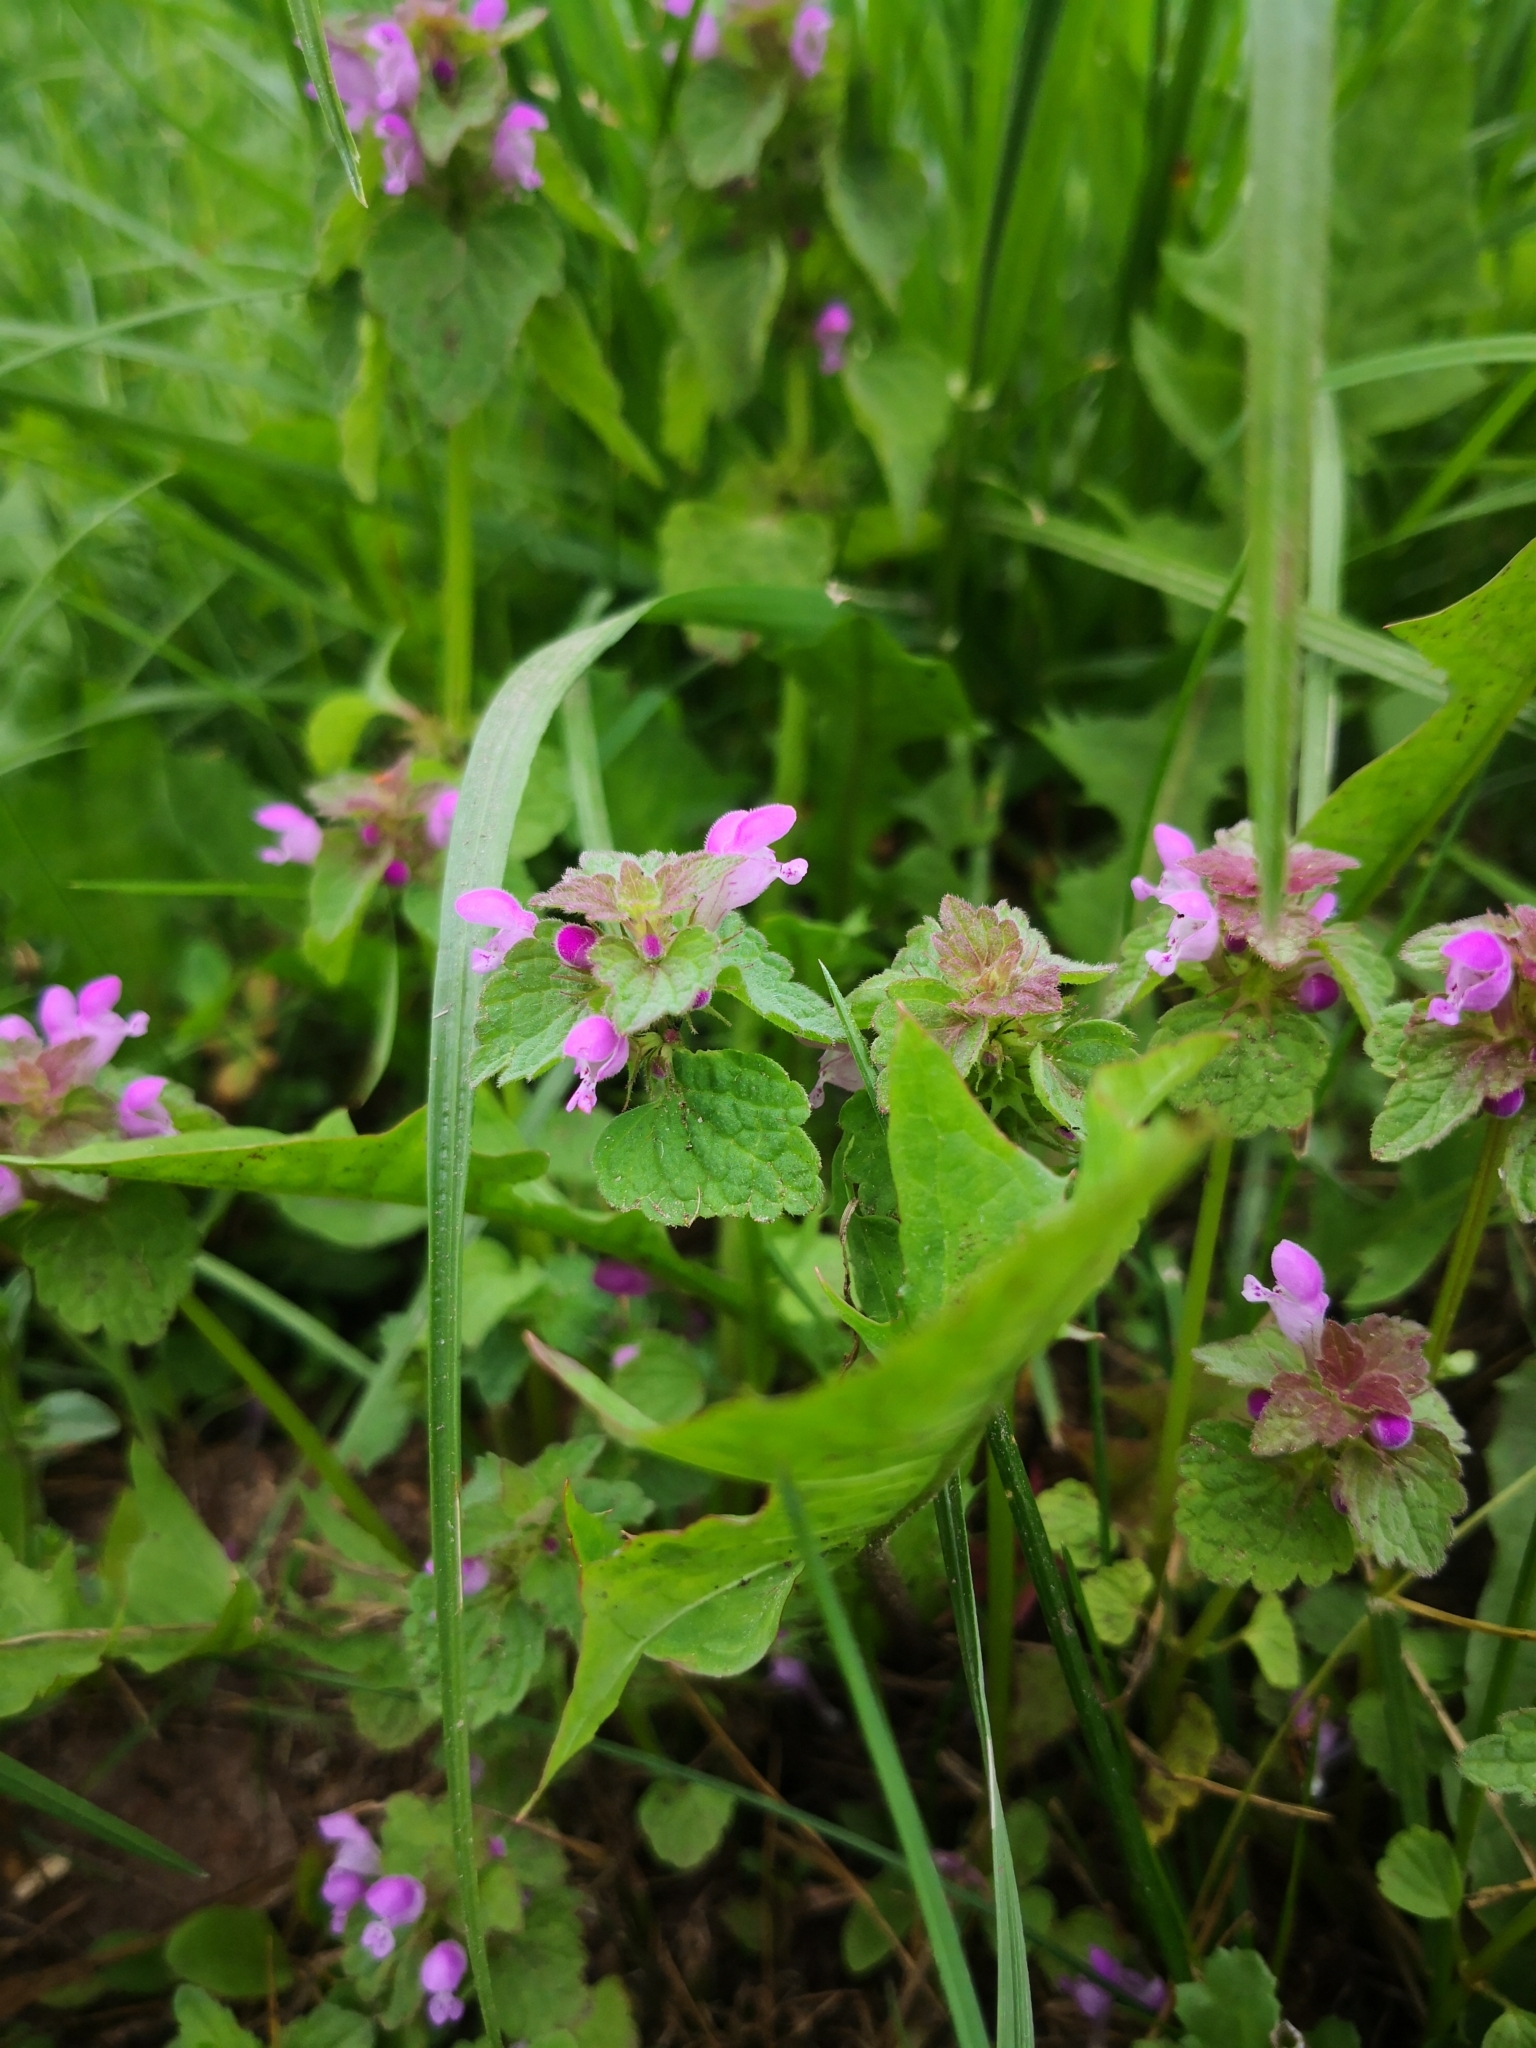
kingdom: Plantae
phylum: Tracheophyta
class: Magnoliopsida
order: Lamiales
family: Lamiaceae
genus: Lamium
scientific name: Lamium purpureum
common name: Red dead-nettle
